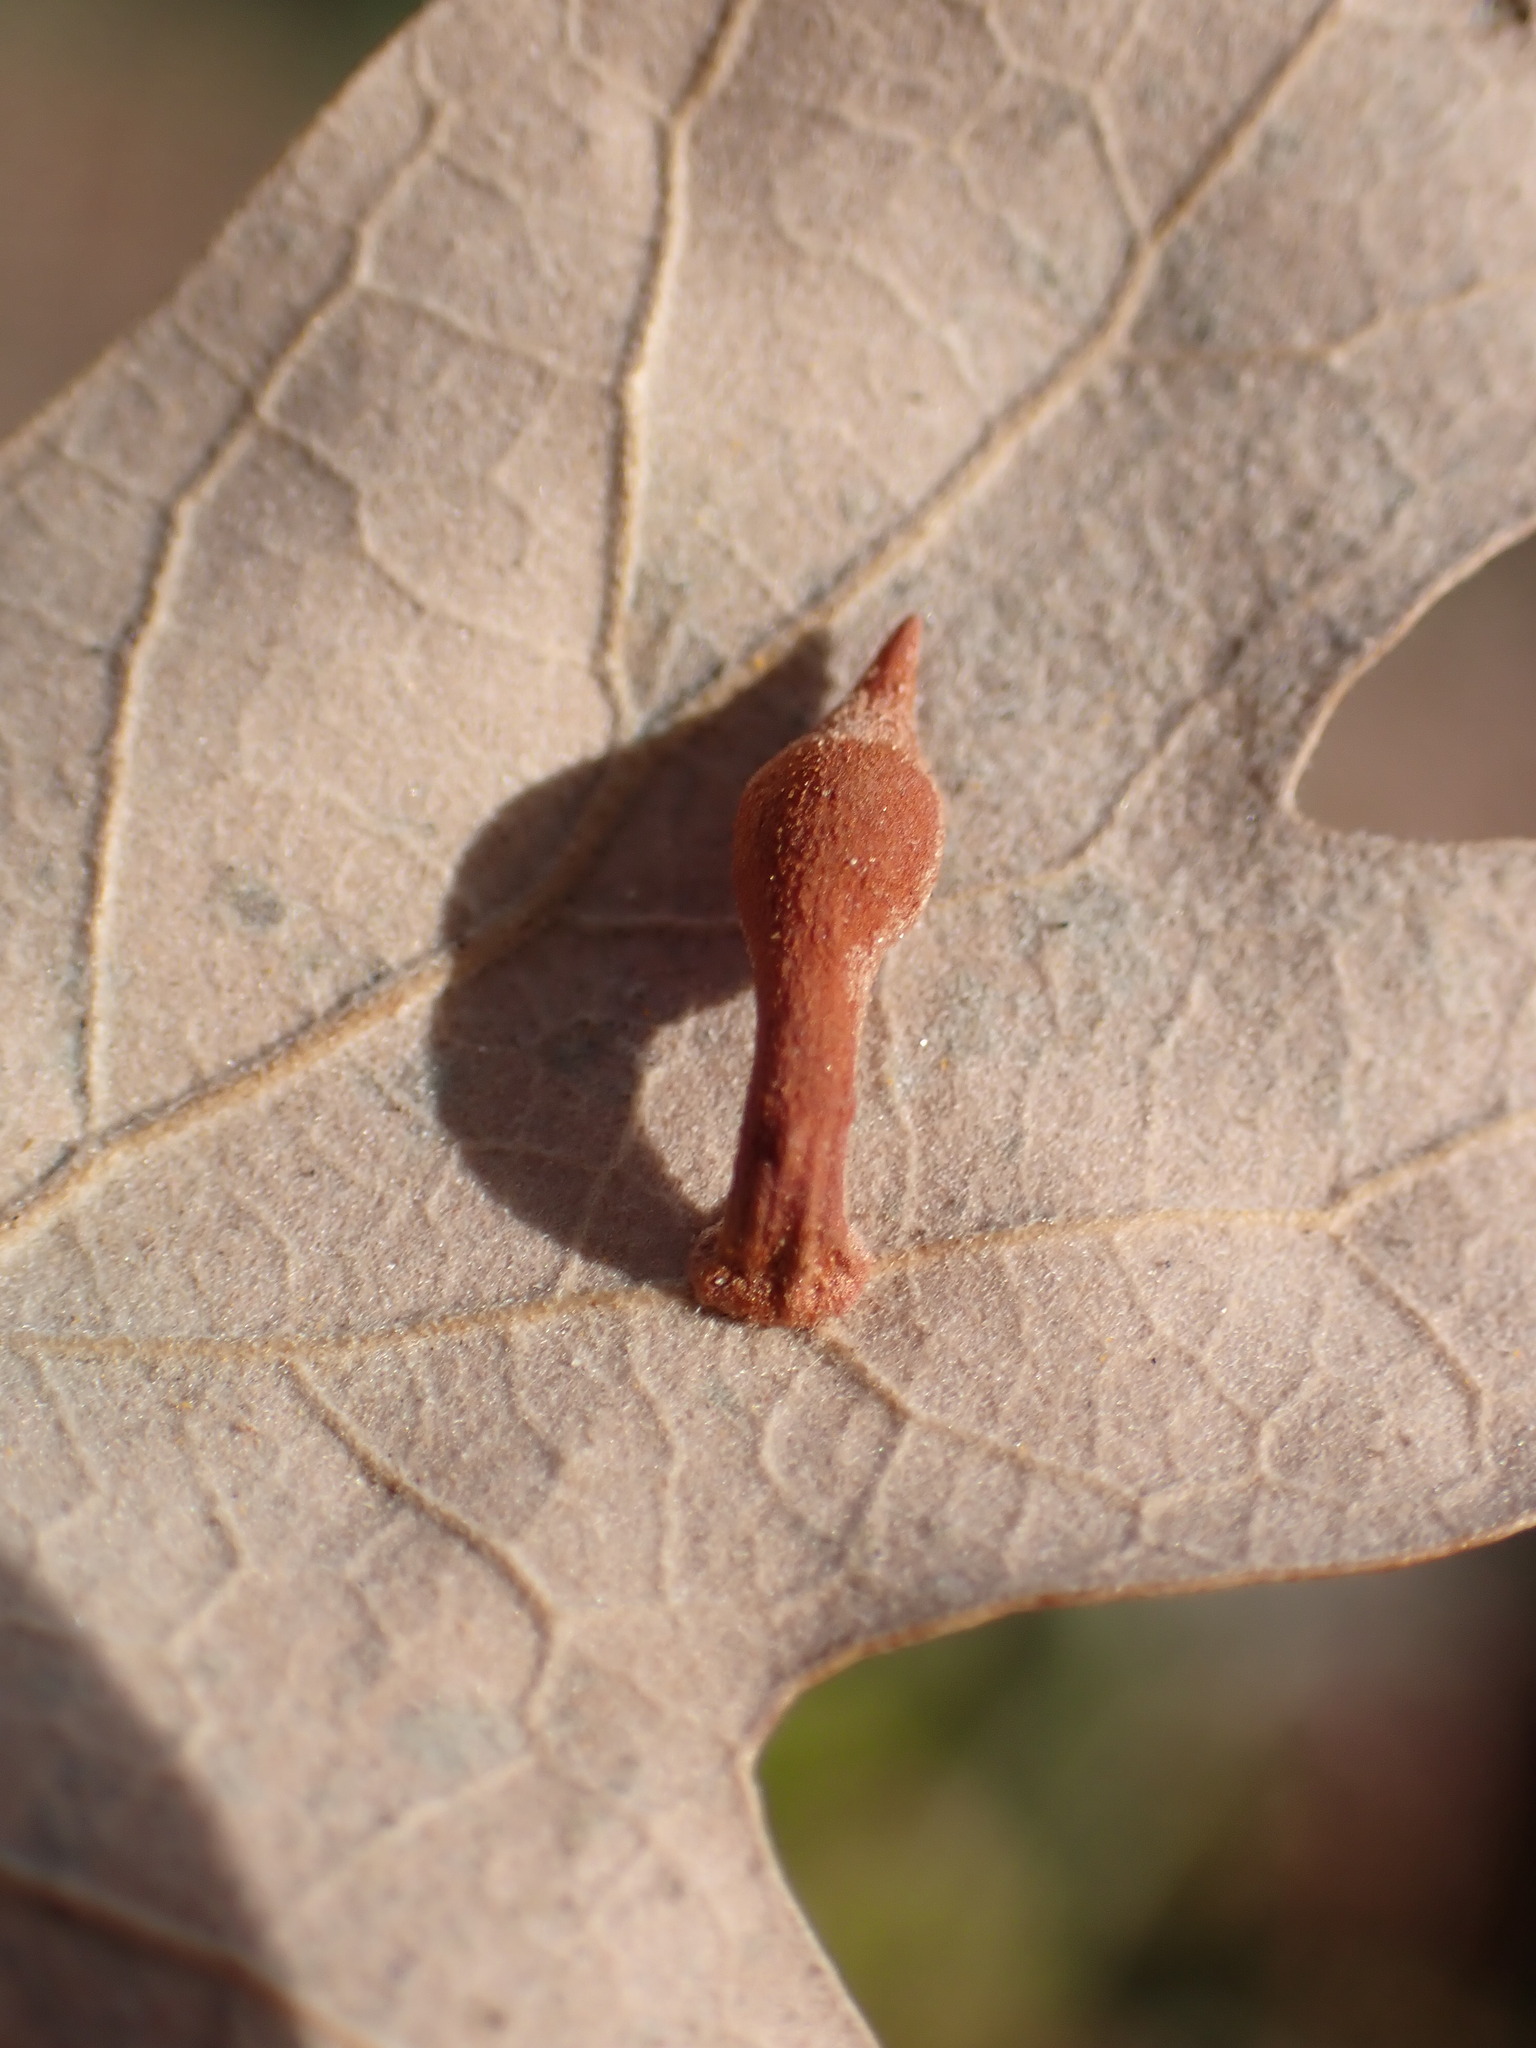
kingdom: Animalia
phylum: Arthropoda
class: Insecta
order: Hymenoptera
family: Cynipidae
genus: Atrusca
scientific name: Atrusca
